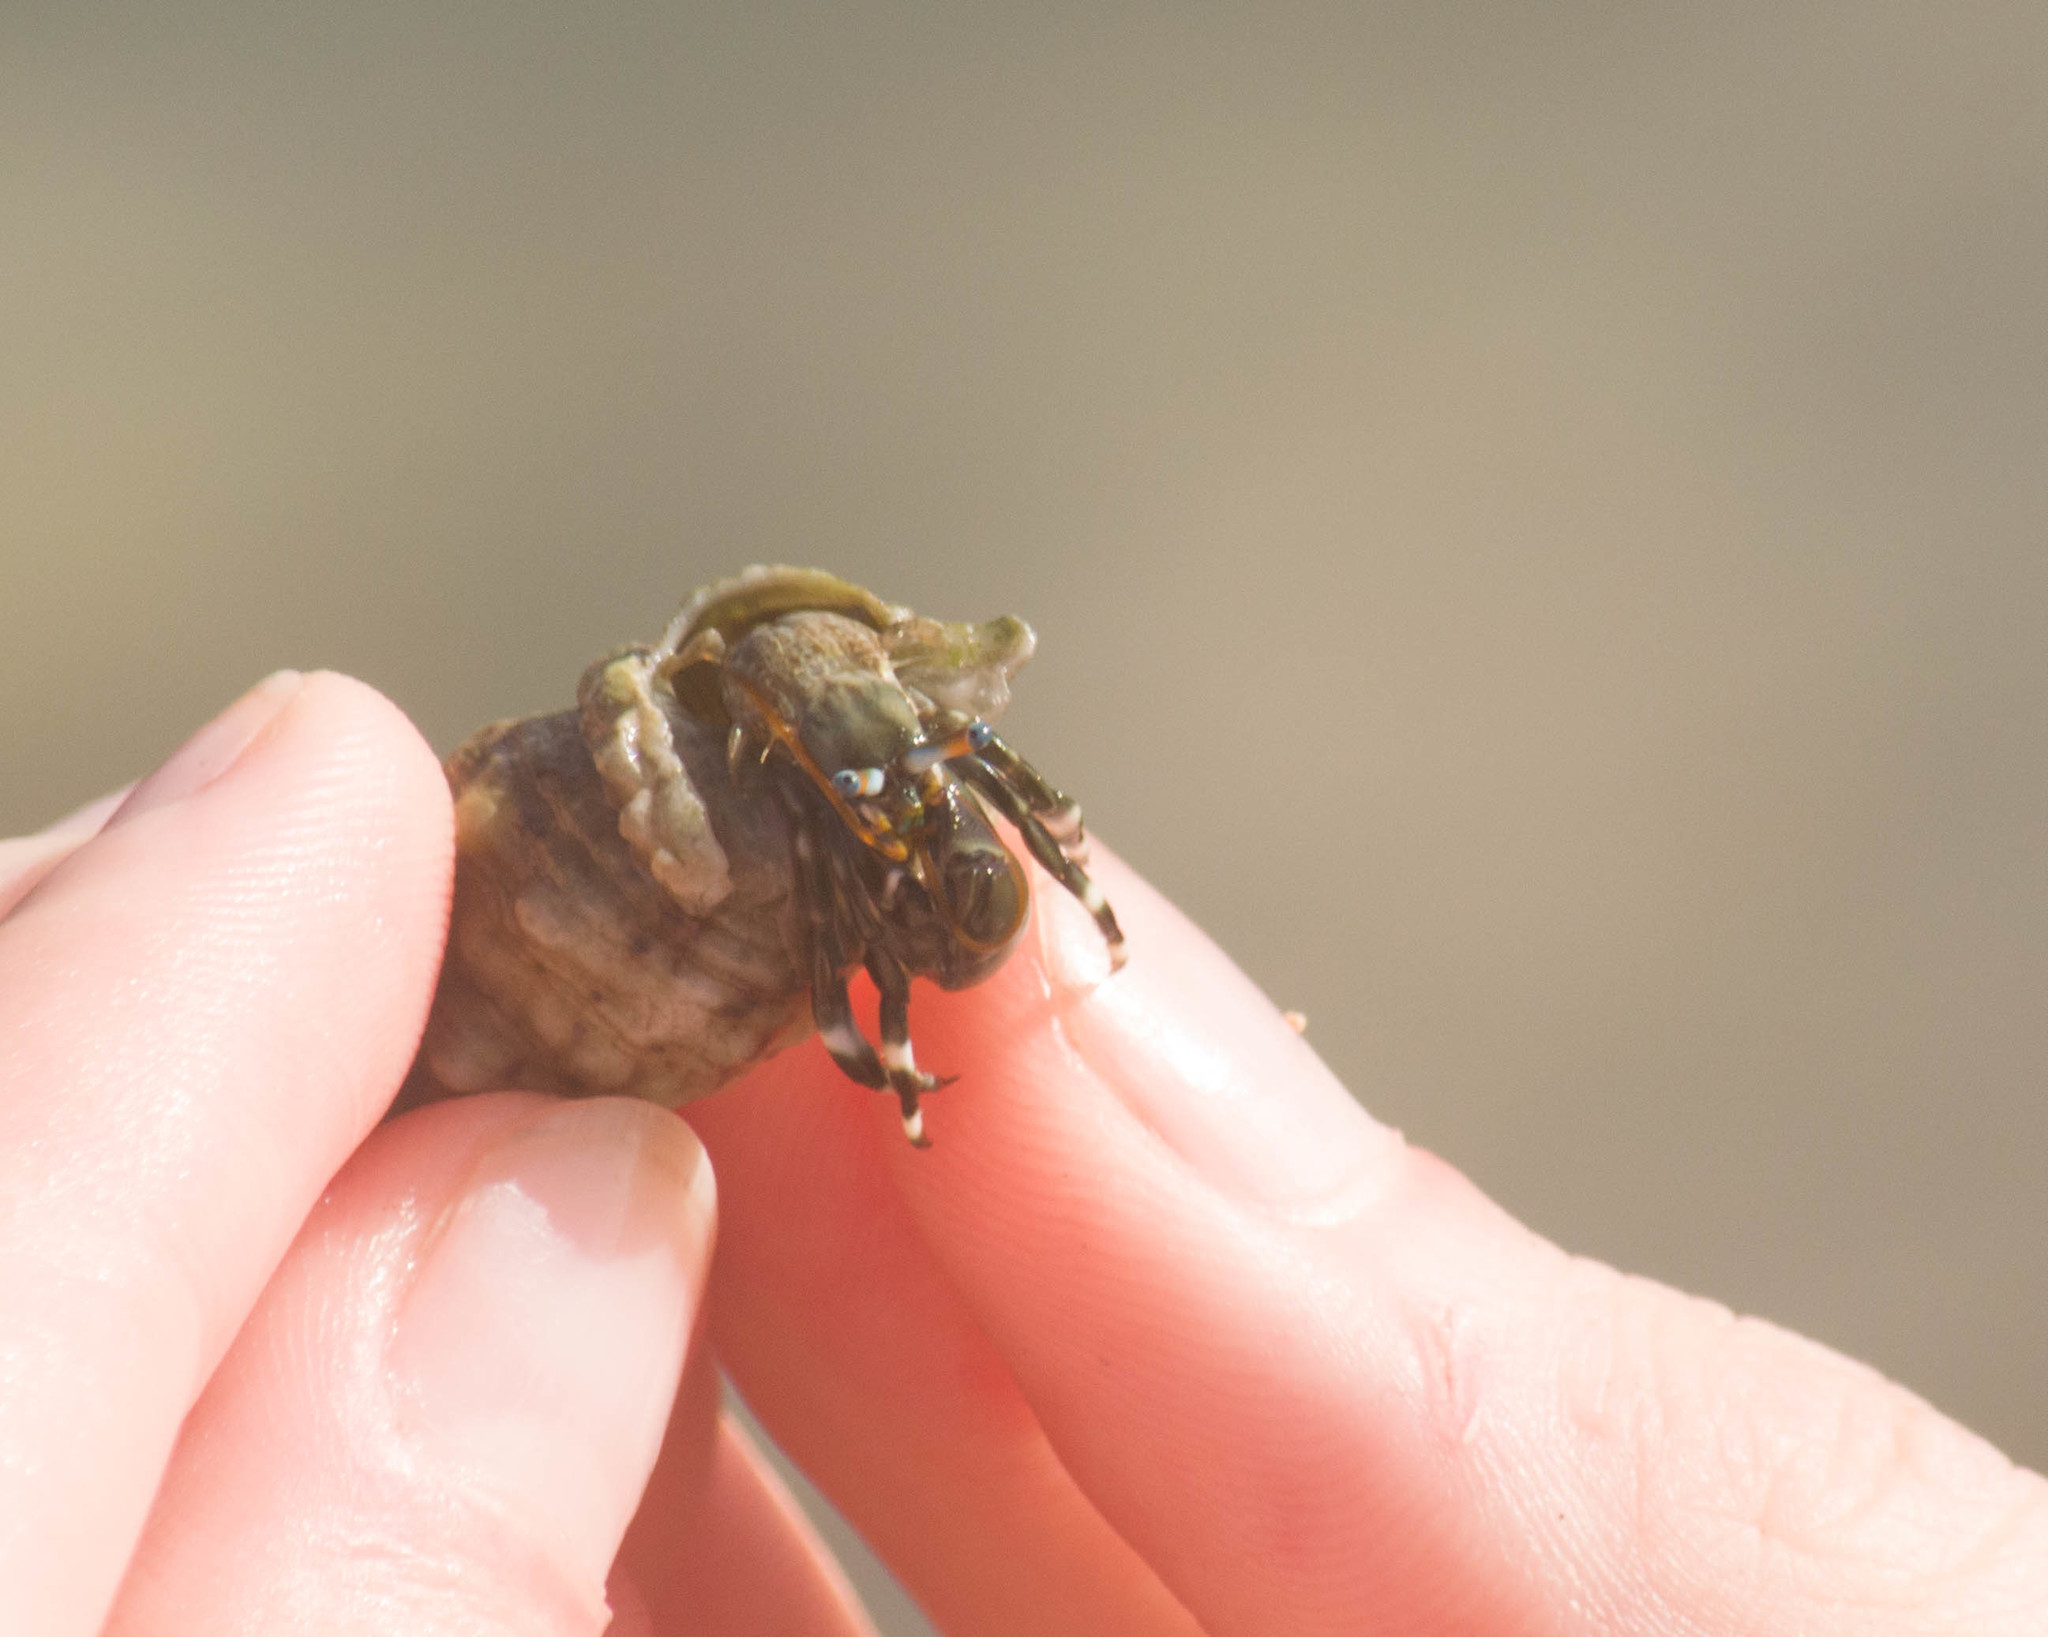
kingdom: Animalia
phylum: Arthropoda
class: Malacostraca
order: Decapoda
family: Diogenidae
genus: Calcinus
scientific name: Calcinus seurati
